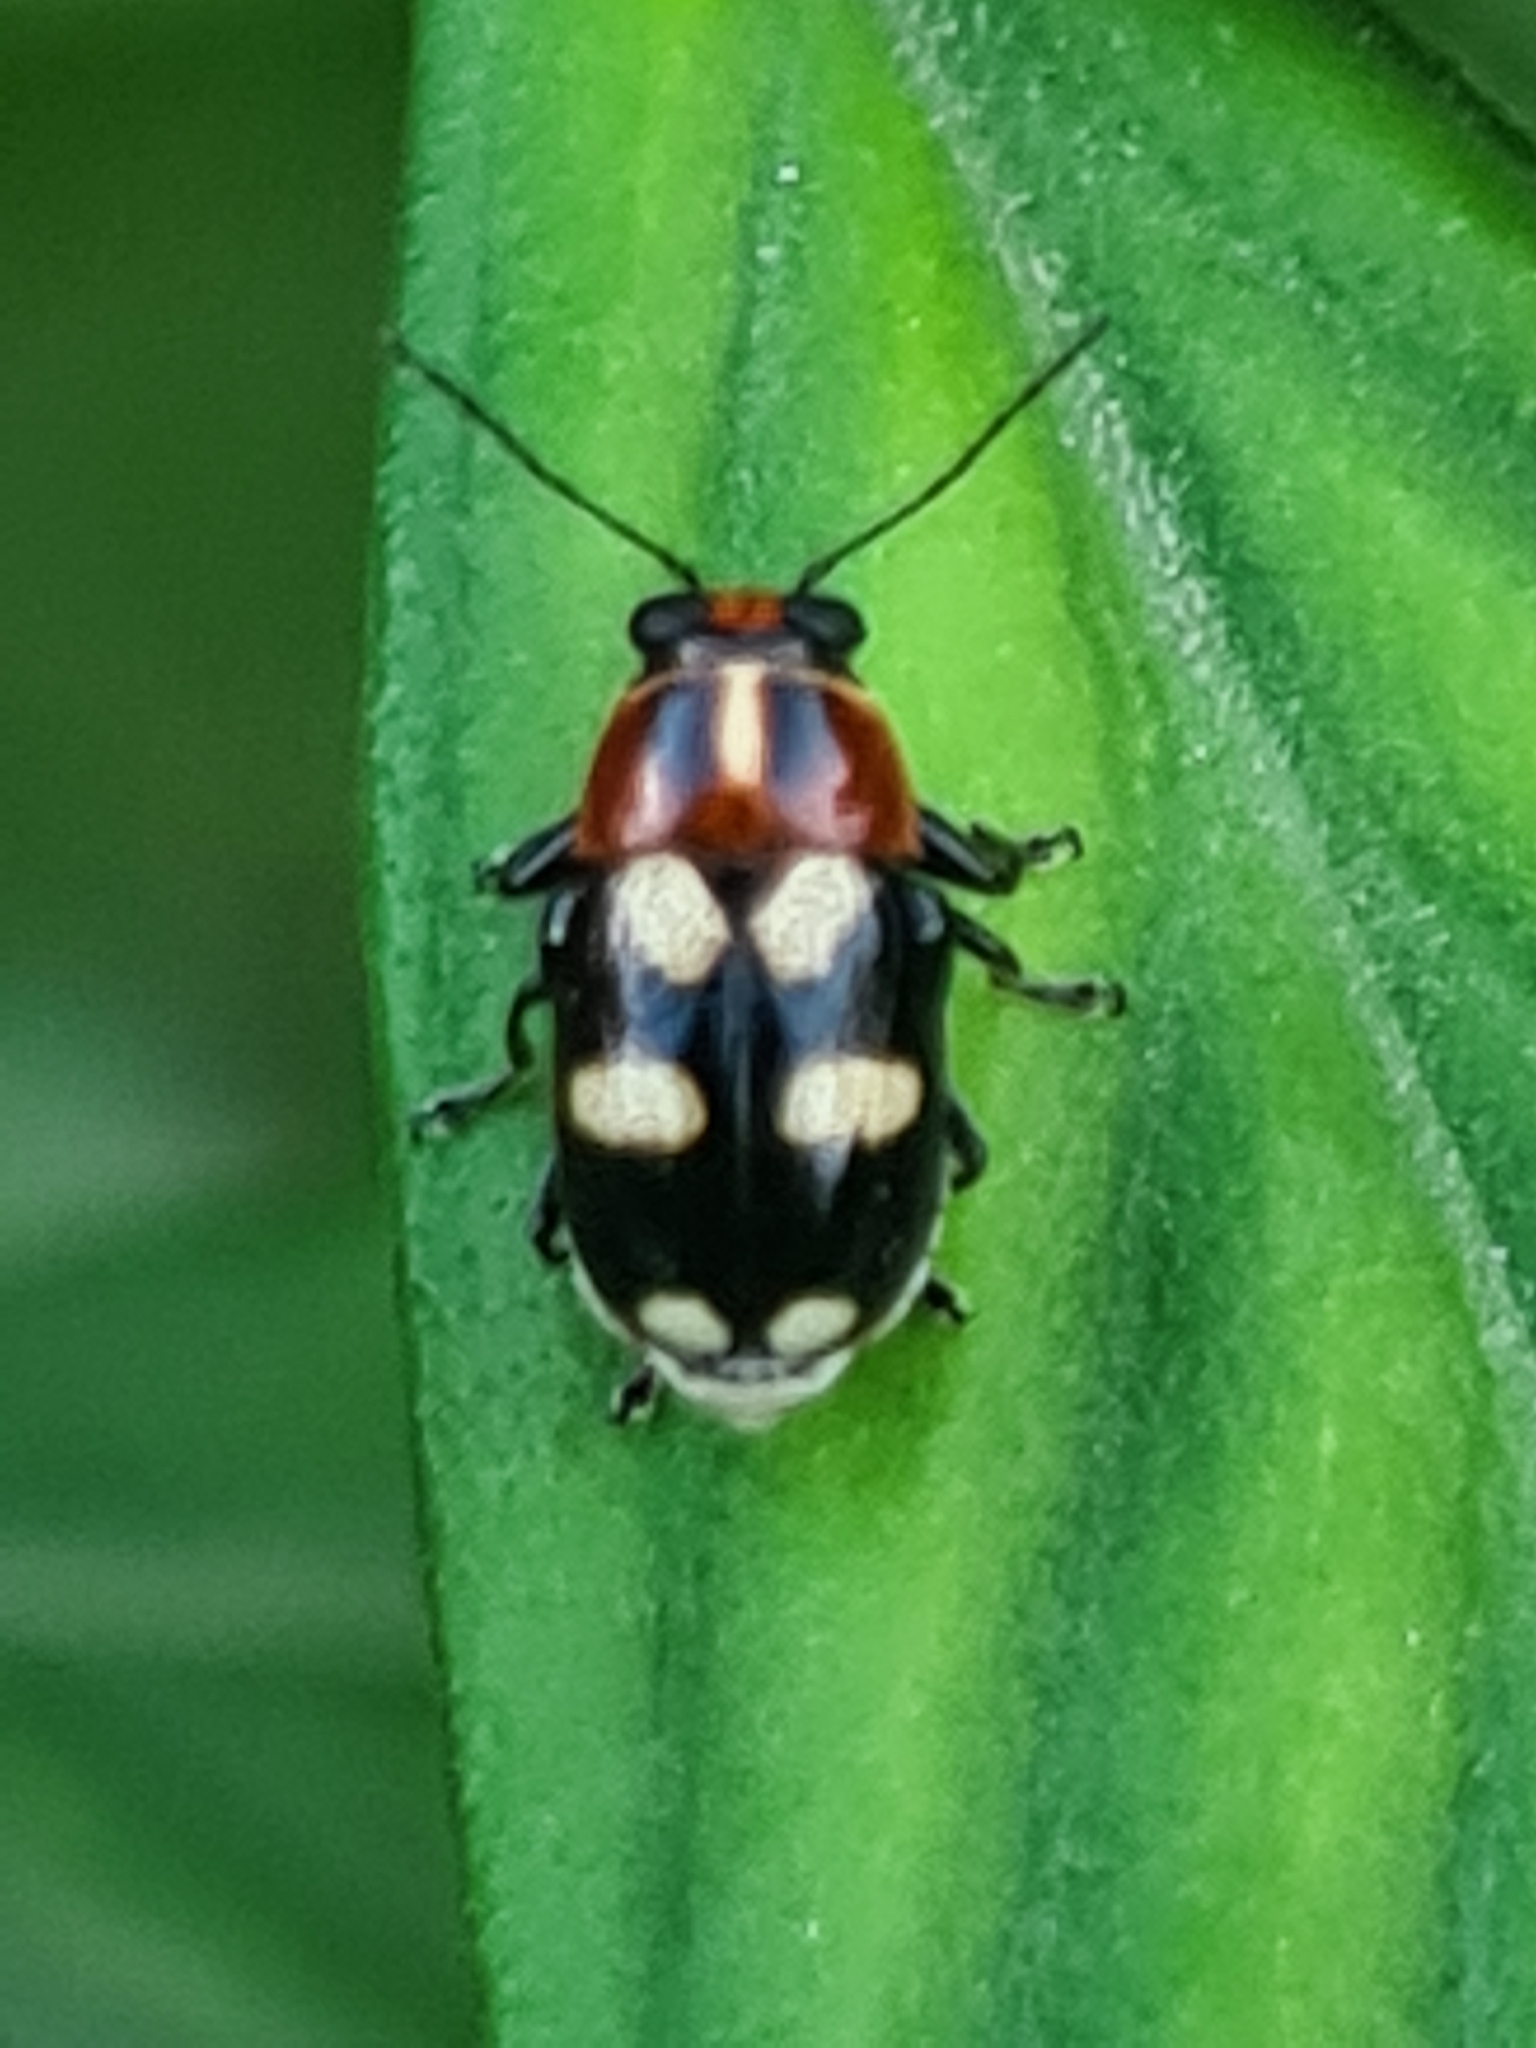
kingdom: Animalia
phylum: Arthropoda
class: Insecta
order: Coleoptera
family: Chrysomelidae
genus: Griburius
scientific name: Griburius perlatus
